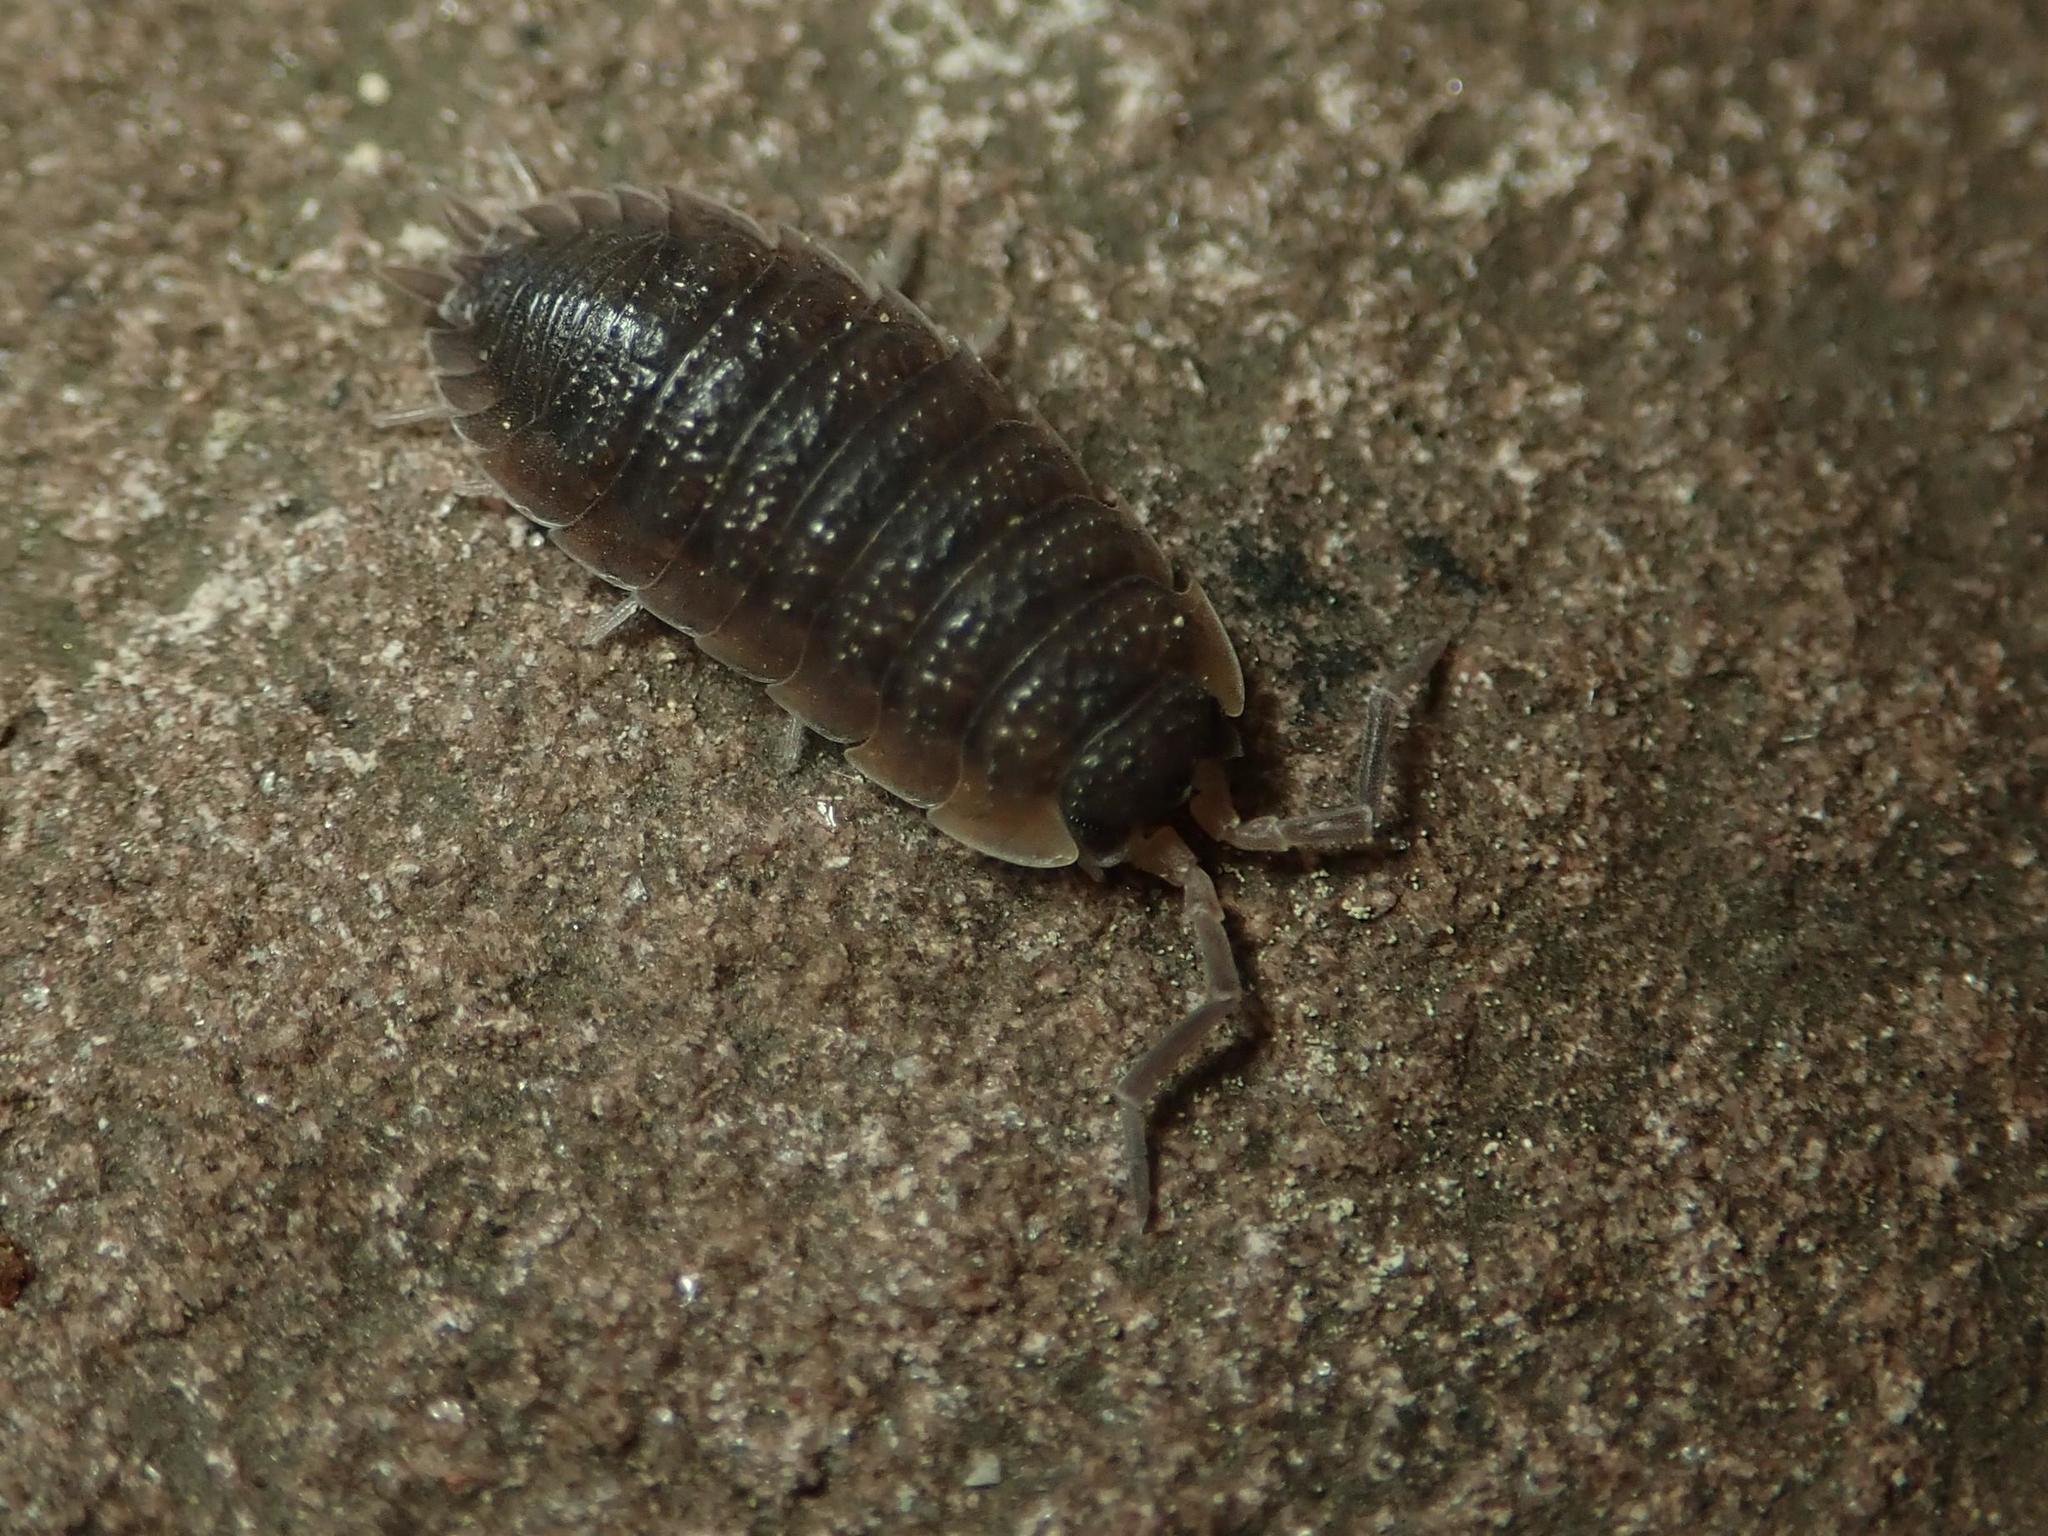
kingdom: Animalia
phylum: Arthropoda
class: Malacostraca
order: Isopoda
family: Porcellionidae
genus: Porcellio
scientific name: Porcellio scaber
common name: Common rough woodlouse
